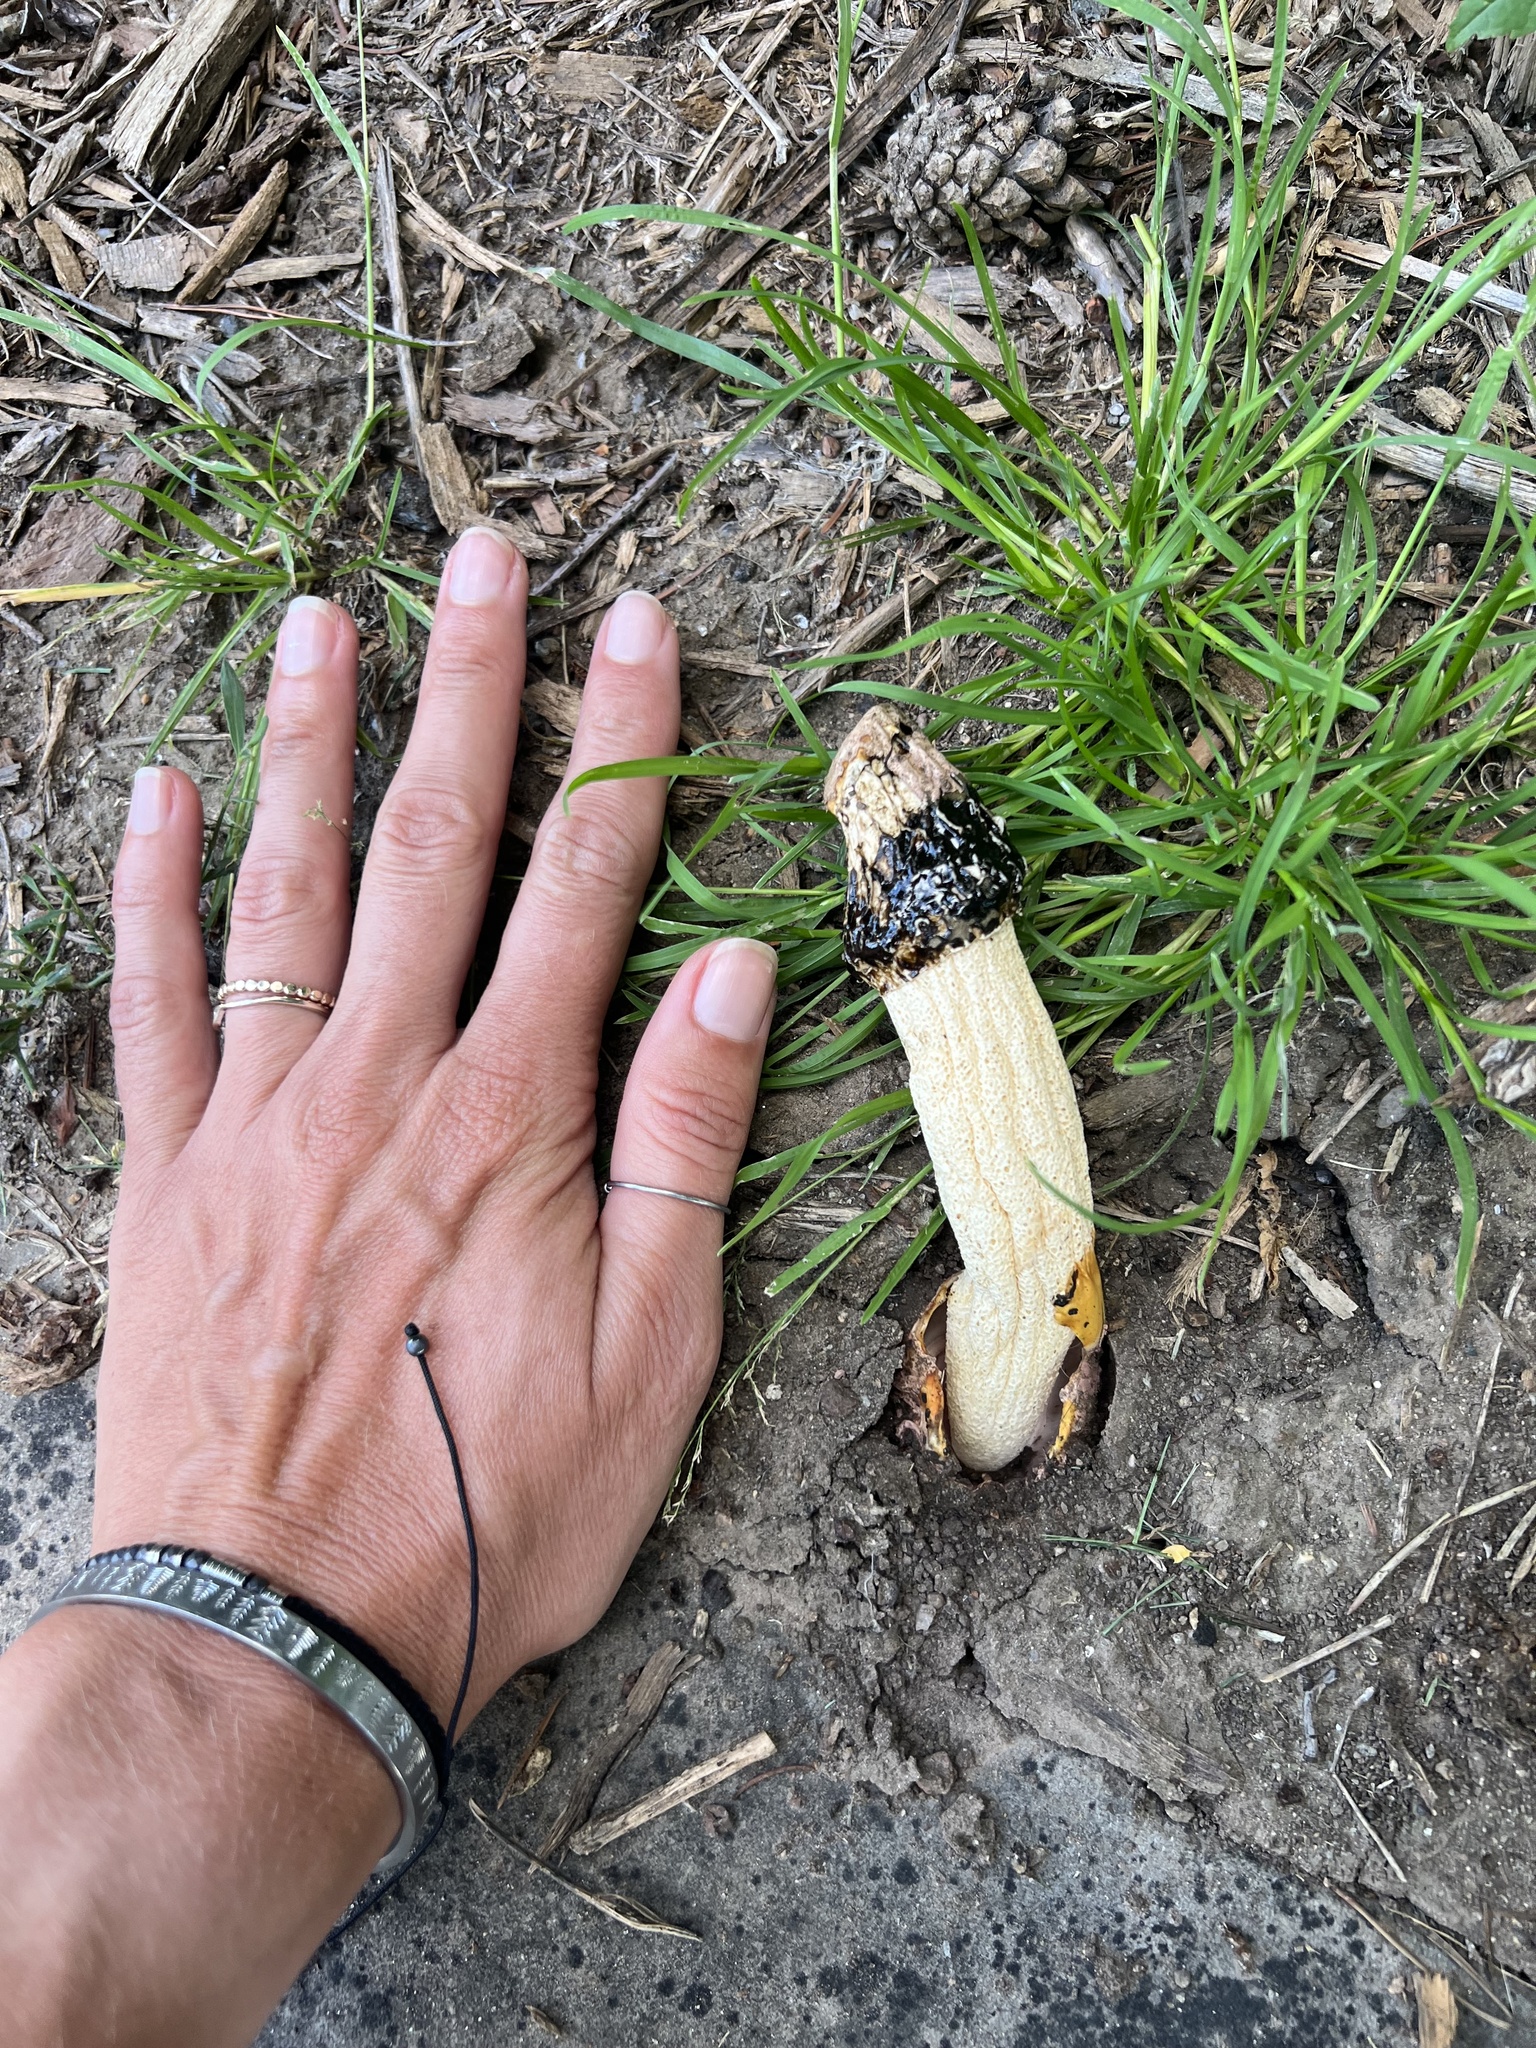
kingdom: Fungi
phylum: Basidiomycota
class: Agaricomycetes
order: Phallales
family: Phallaceae
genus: Phallus
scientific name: Phallus impudicus
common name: Common stinkhorn
